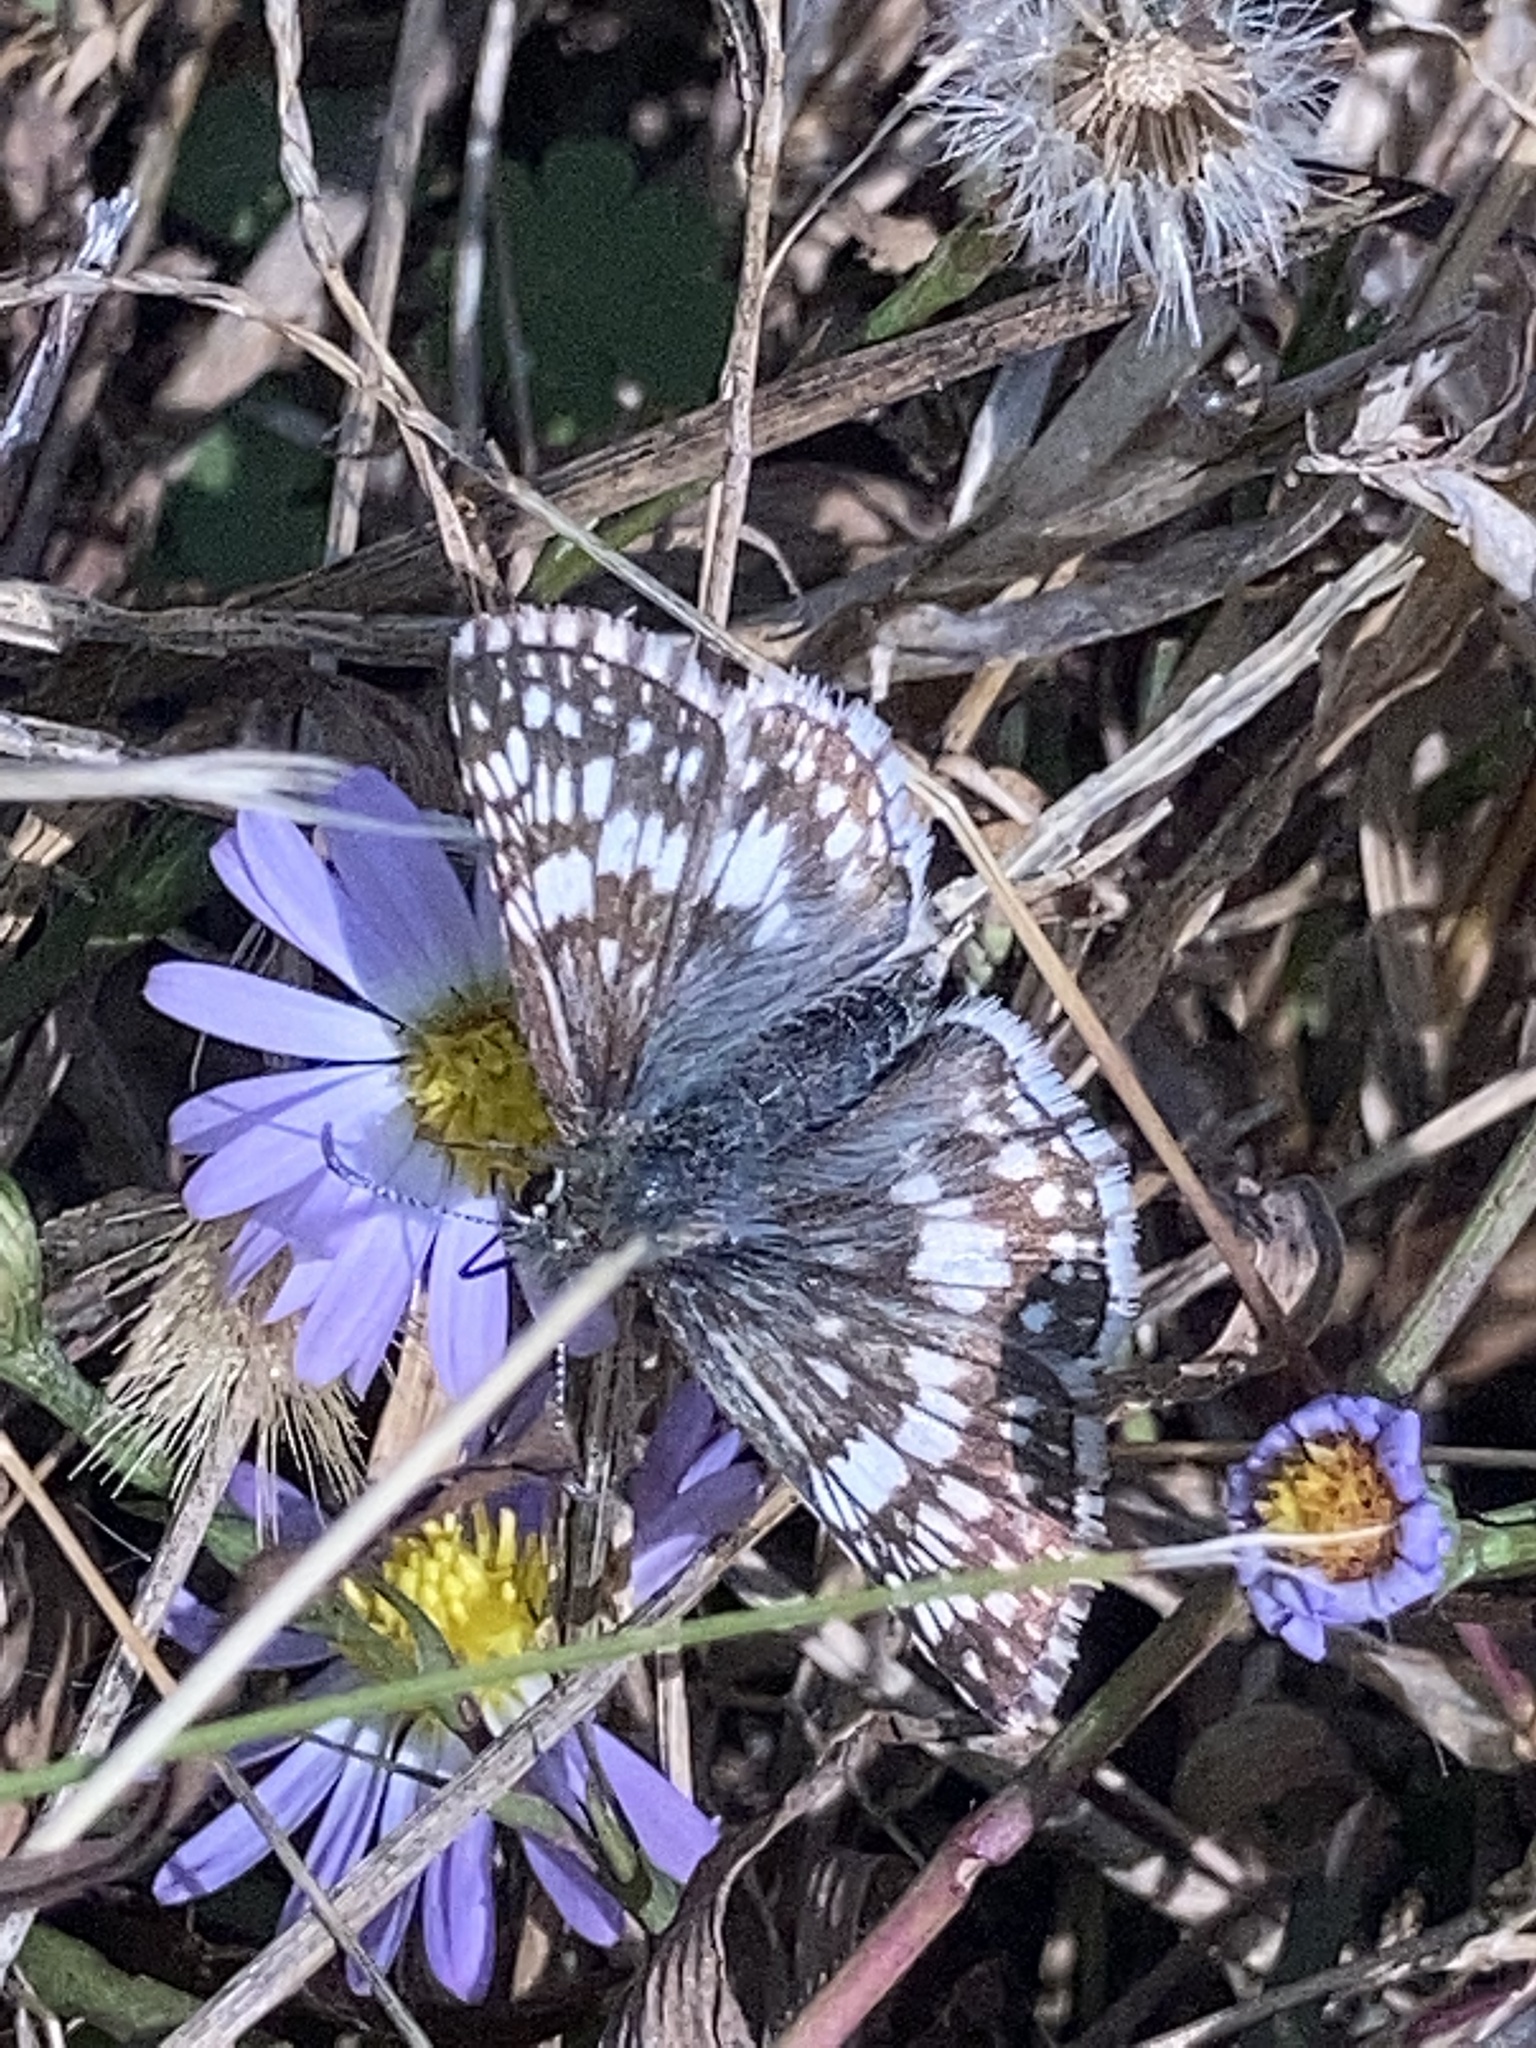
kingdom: Animalia
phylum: Arthropoda
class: Insecta
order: Lepidoptera
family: Hesperiidae
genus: Burnsius
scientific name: Burnsius communis
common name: Common checkered-skipper
